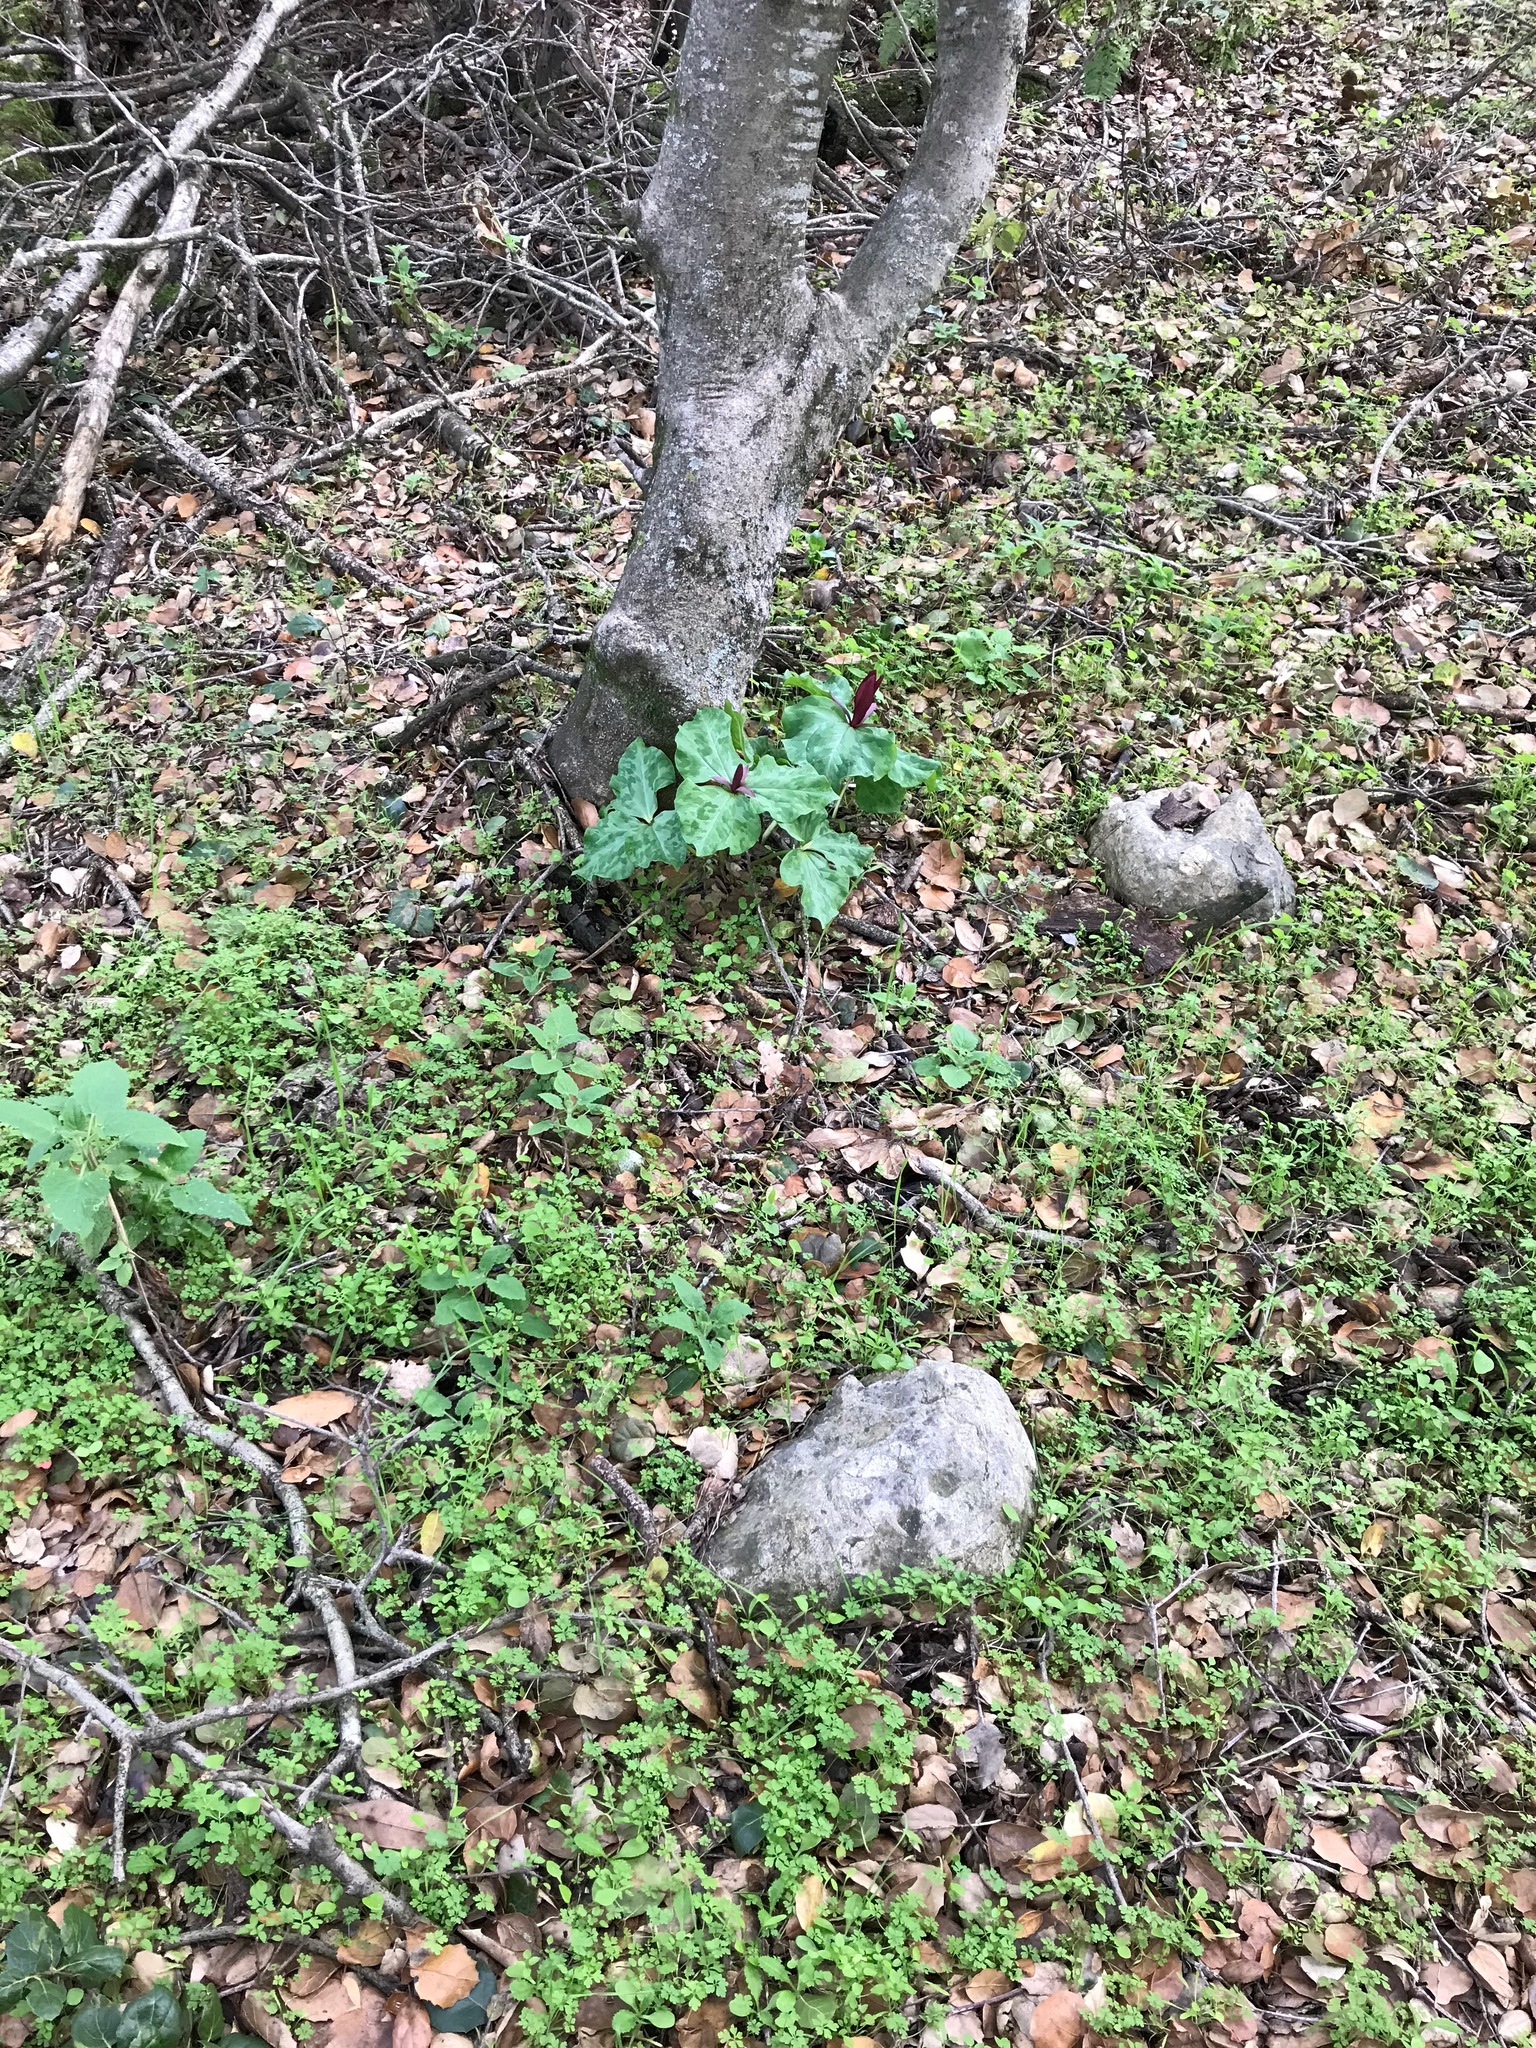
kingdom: Plantae
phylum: Tracheophyta
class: Liliopsida
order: Liliales
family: Melanthiaceae
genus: Trillium
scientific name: Trillium chloropetalum
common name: Giant trillium
